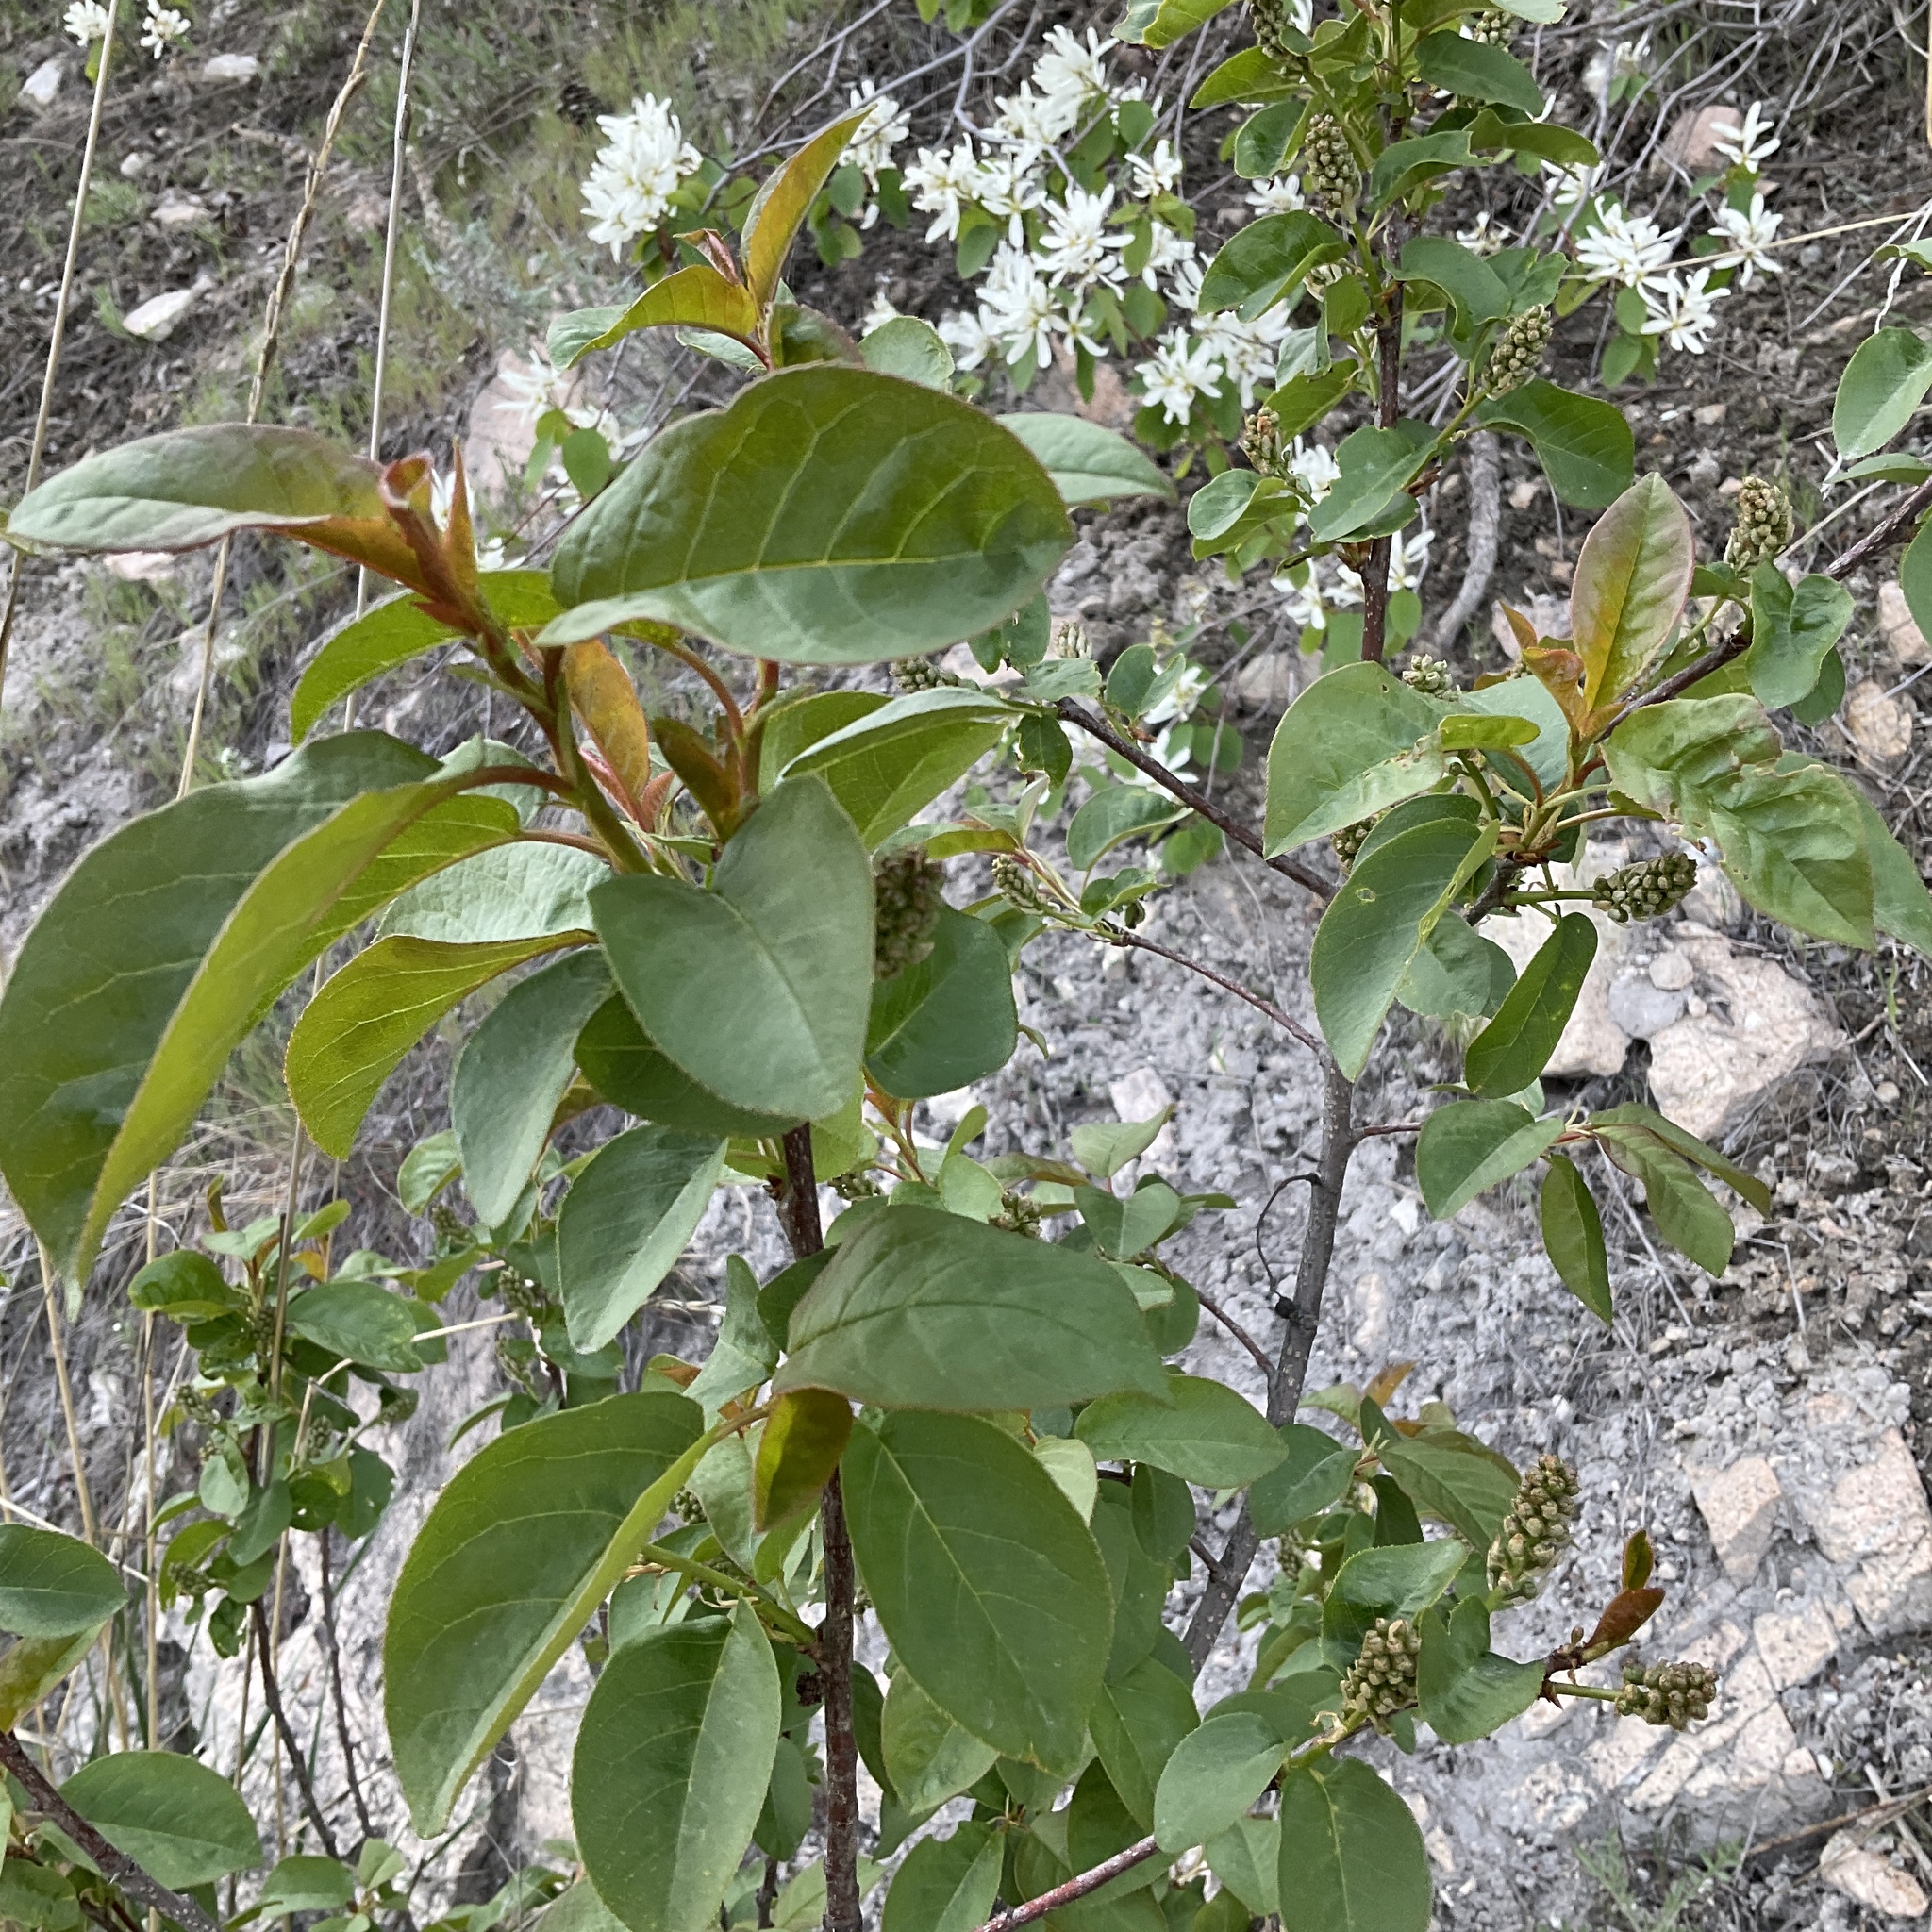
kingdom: Plantae
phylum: Tracheophyta
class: Magnoliopsida
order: Rosales
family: Rosaceae
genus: Prunus
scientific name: Prunus virginiana
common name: Chokecherry
